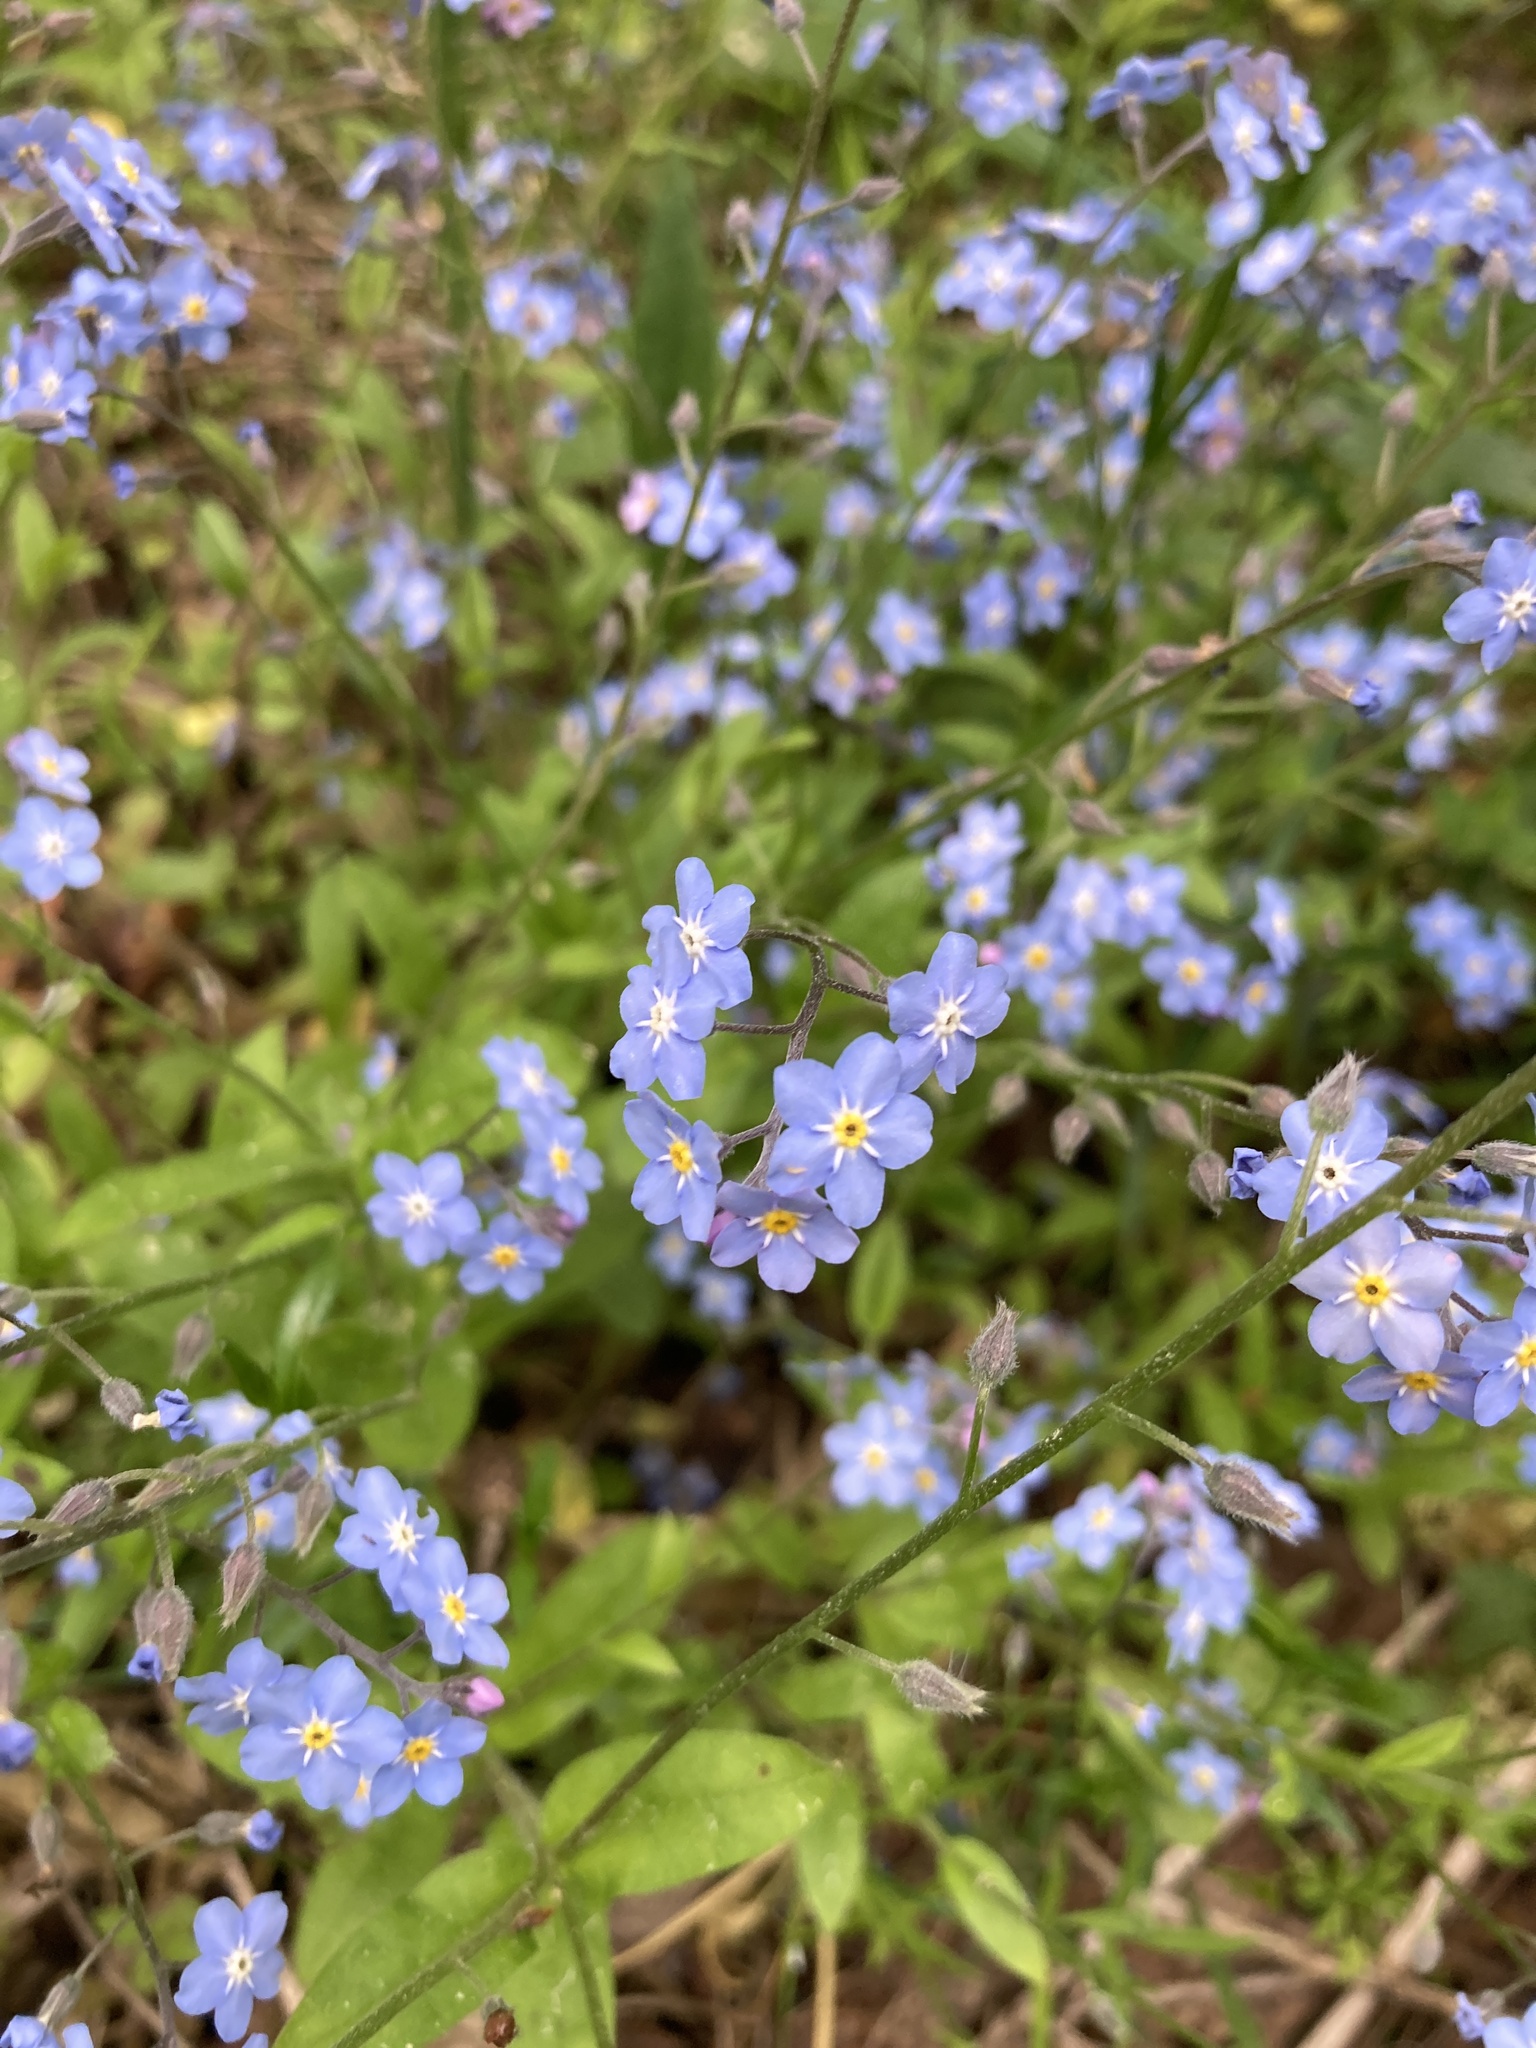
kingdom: Plantae
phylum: Tracheophyta
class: Magnoliopsida
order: Boraginales
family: Boraginaceae
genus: Myosotis
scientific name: Myosotis sylvatica
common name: Wood forget-me-not
